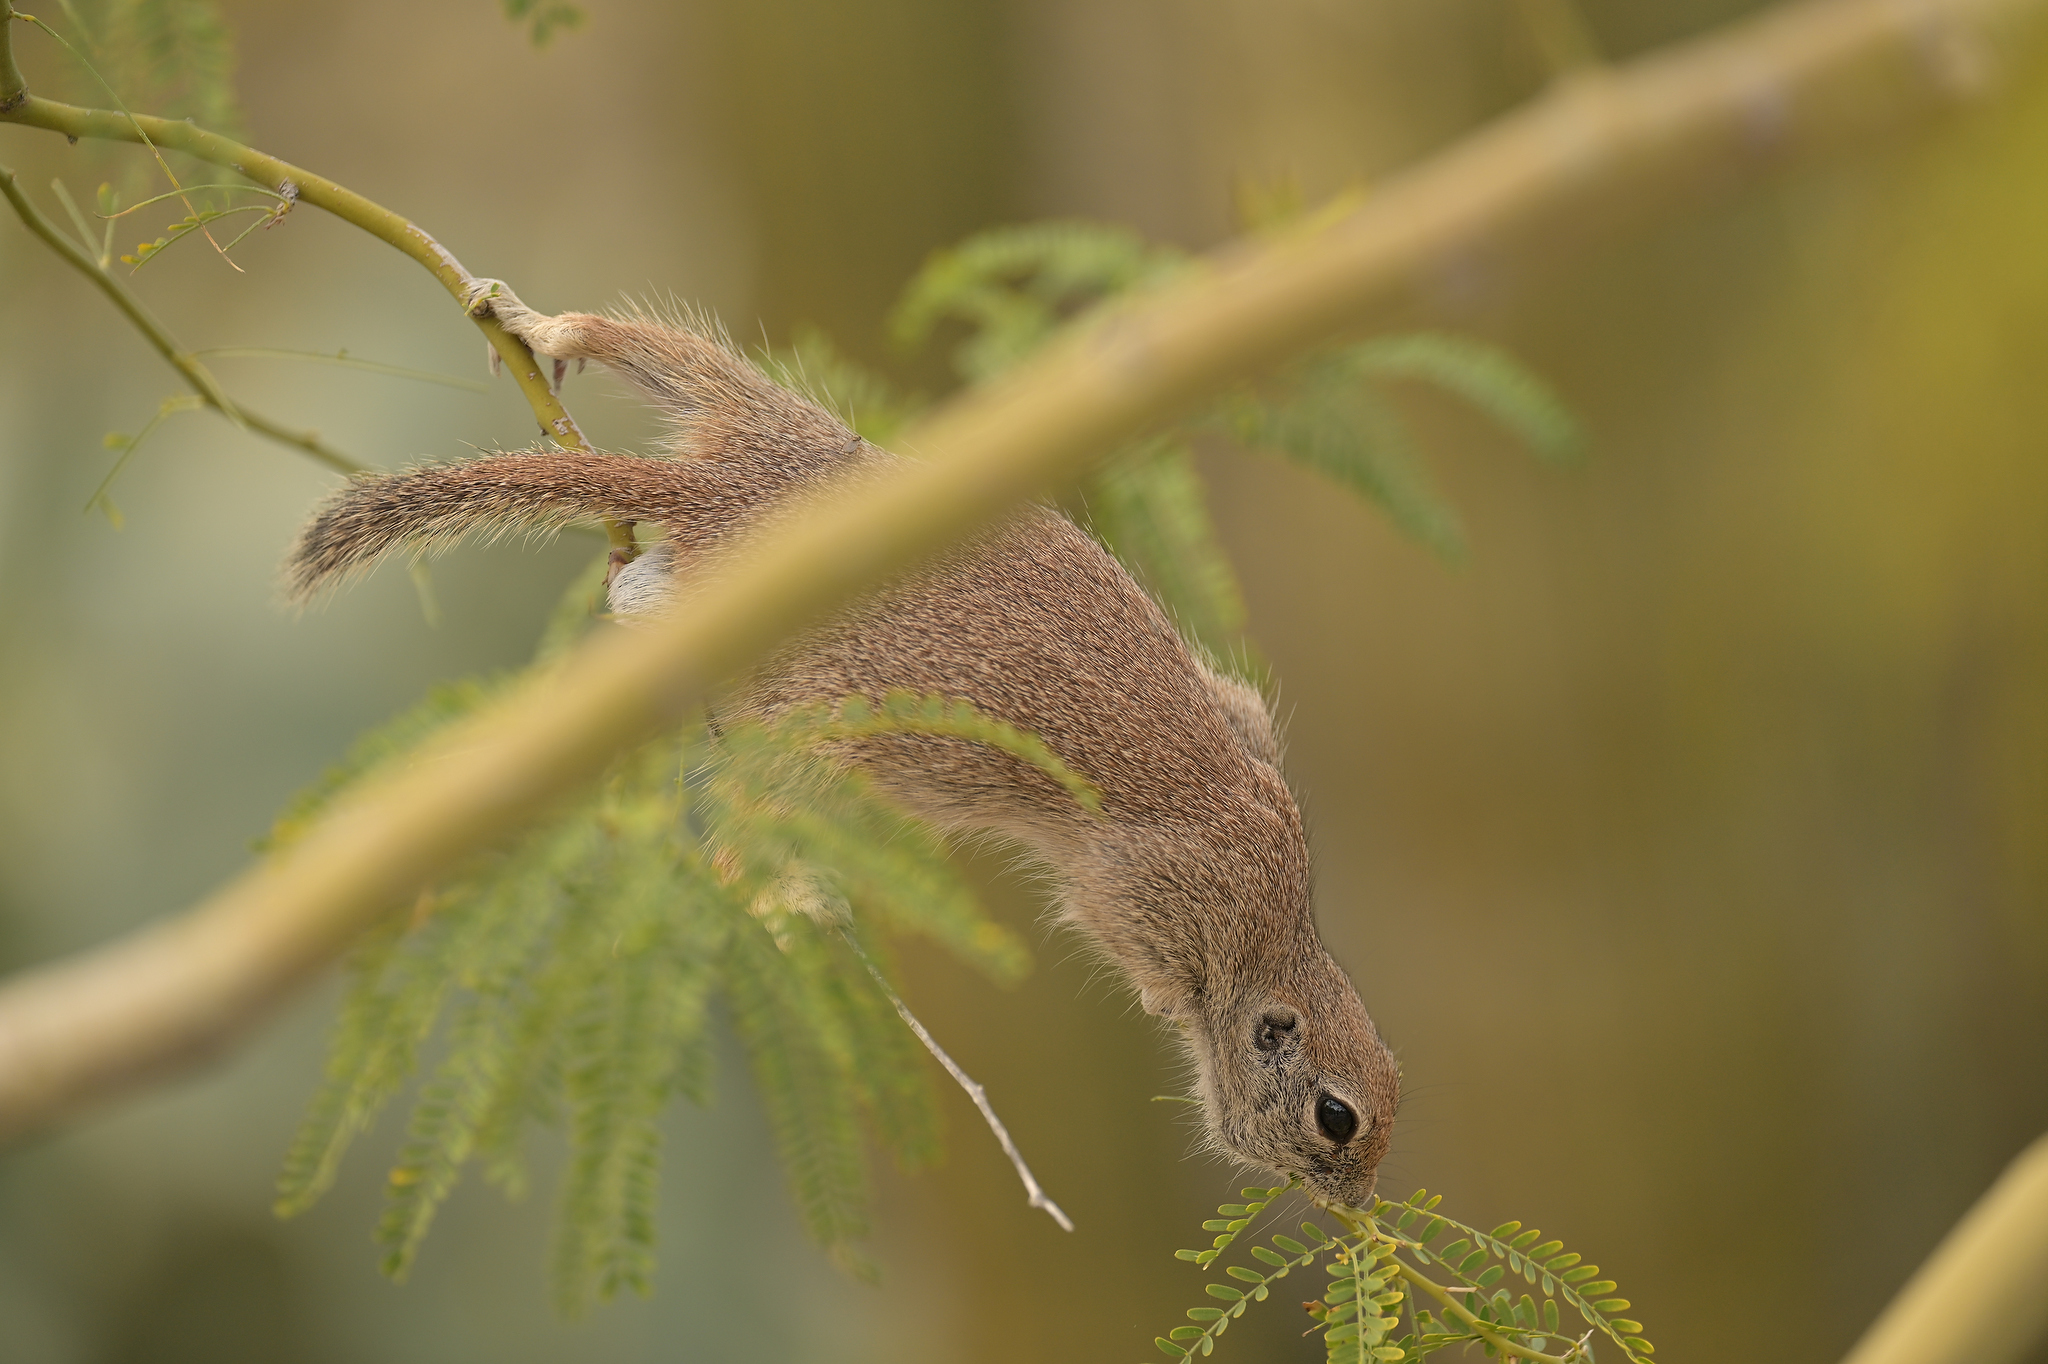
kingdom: Animalia
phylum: Chordata
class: Mammalia
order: Rodentia
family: Sciuridae
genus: Xerospermophilus
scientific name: Xerospermophilus tereticaudus
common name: Round-tailed ground squirrel
